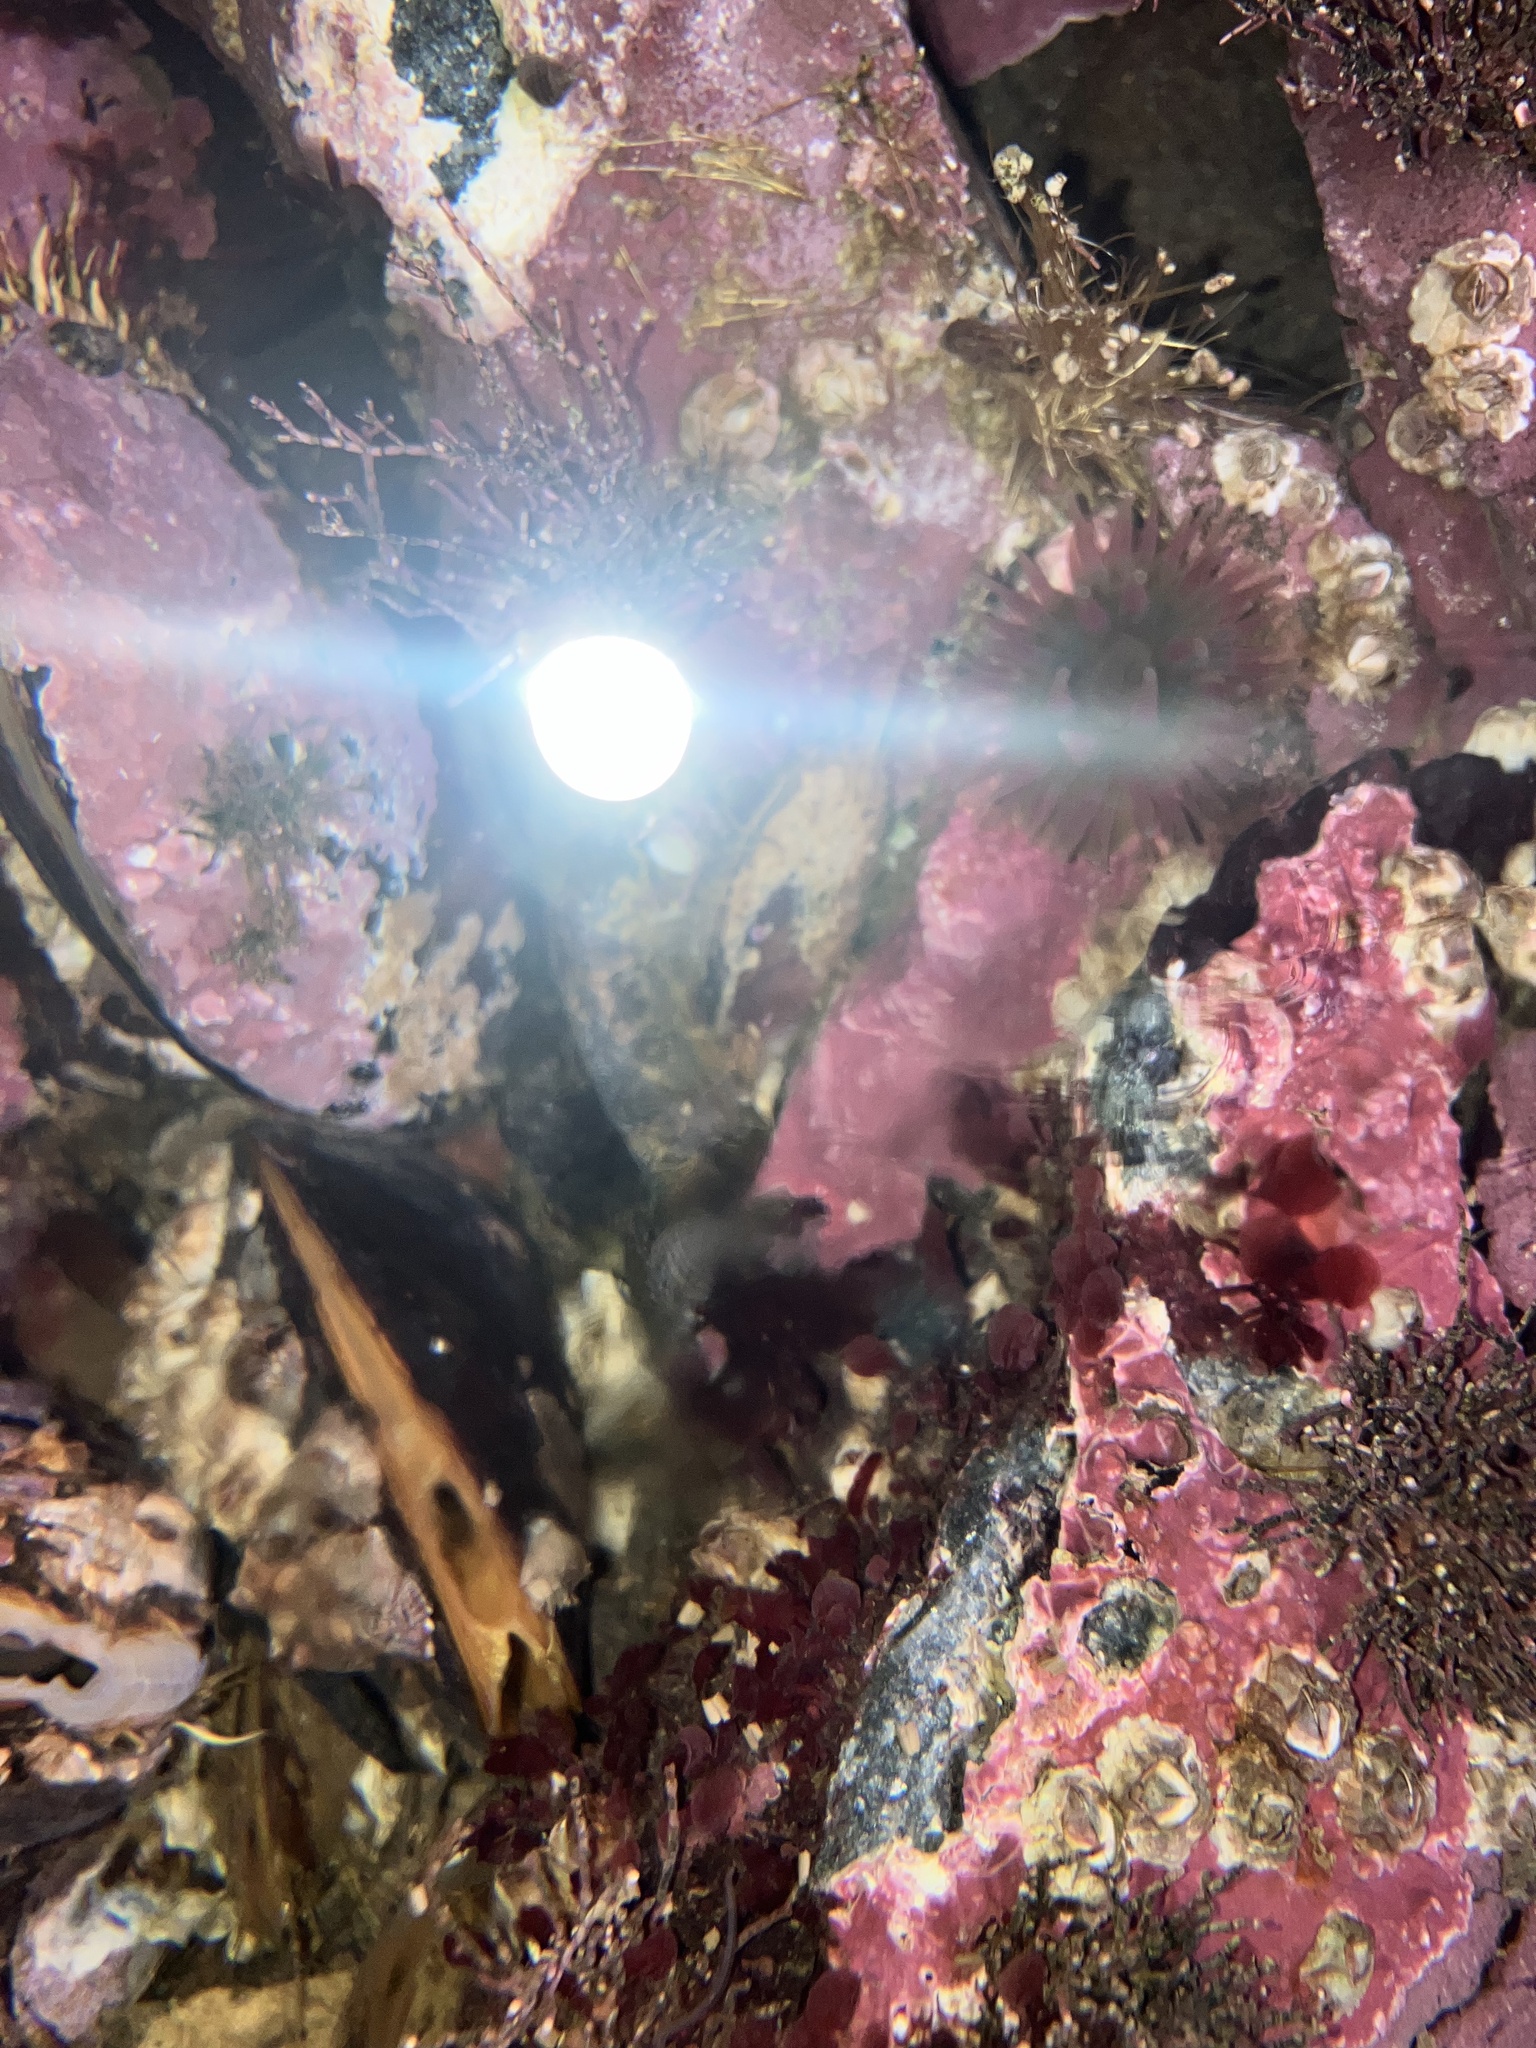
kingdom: Animalia
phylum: Cnidaria
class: Anthozoa
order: Actiniaria
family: Actiniidae
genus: Urticina
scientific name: Urticina crassicornis
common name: Mottled anemone
